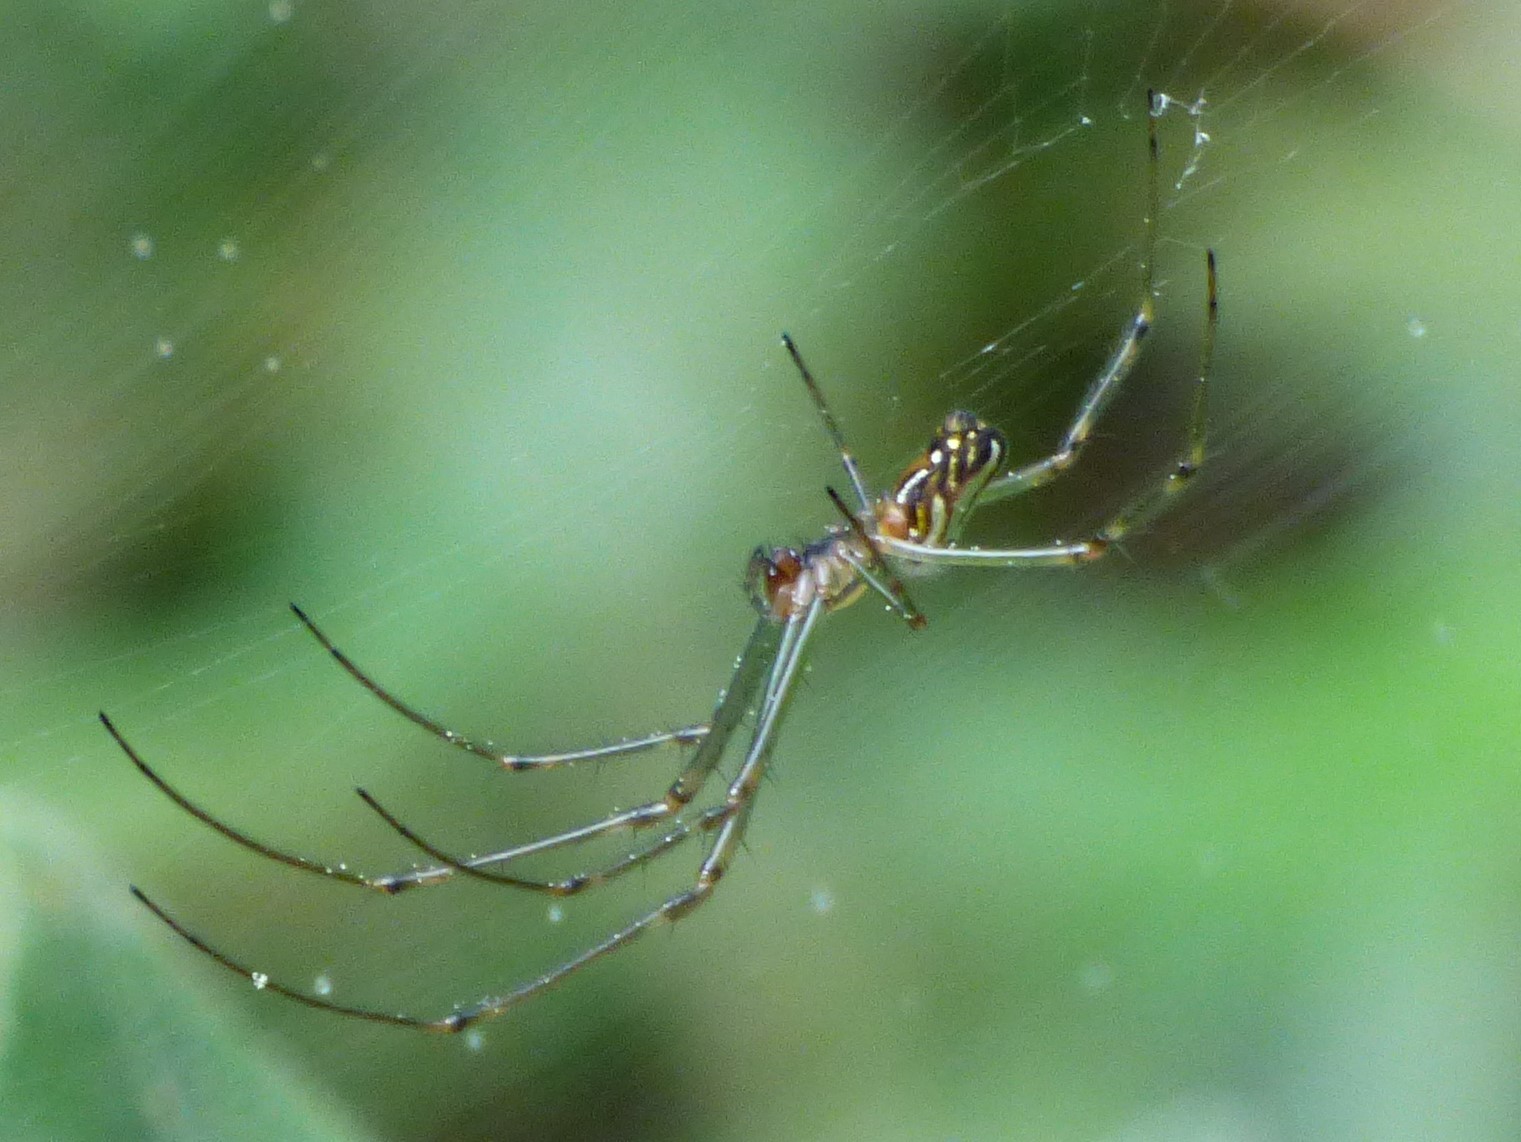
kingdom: Animalia
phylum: Arthropoda
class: Arachnida
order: Araneae
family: Tetragnathidae
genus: Leucauge
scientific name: Leucauge dromedaria
